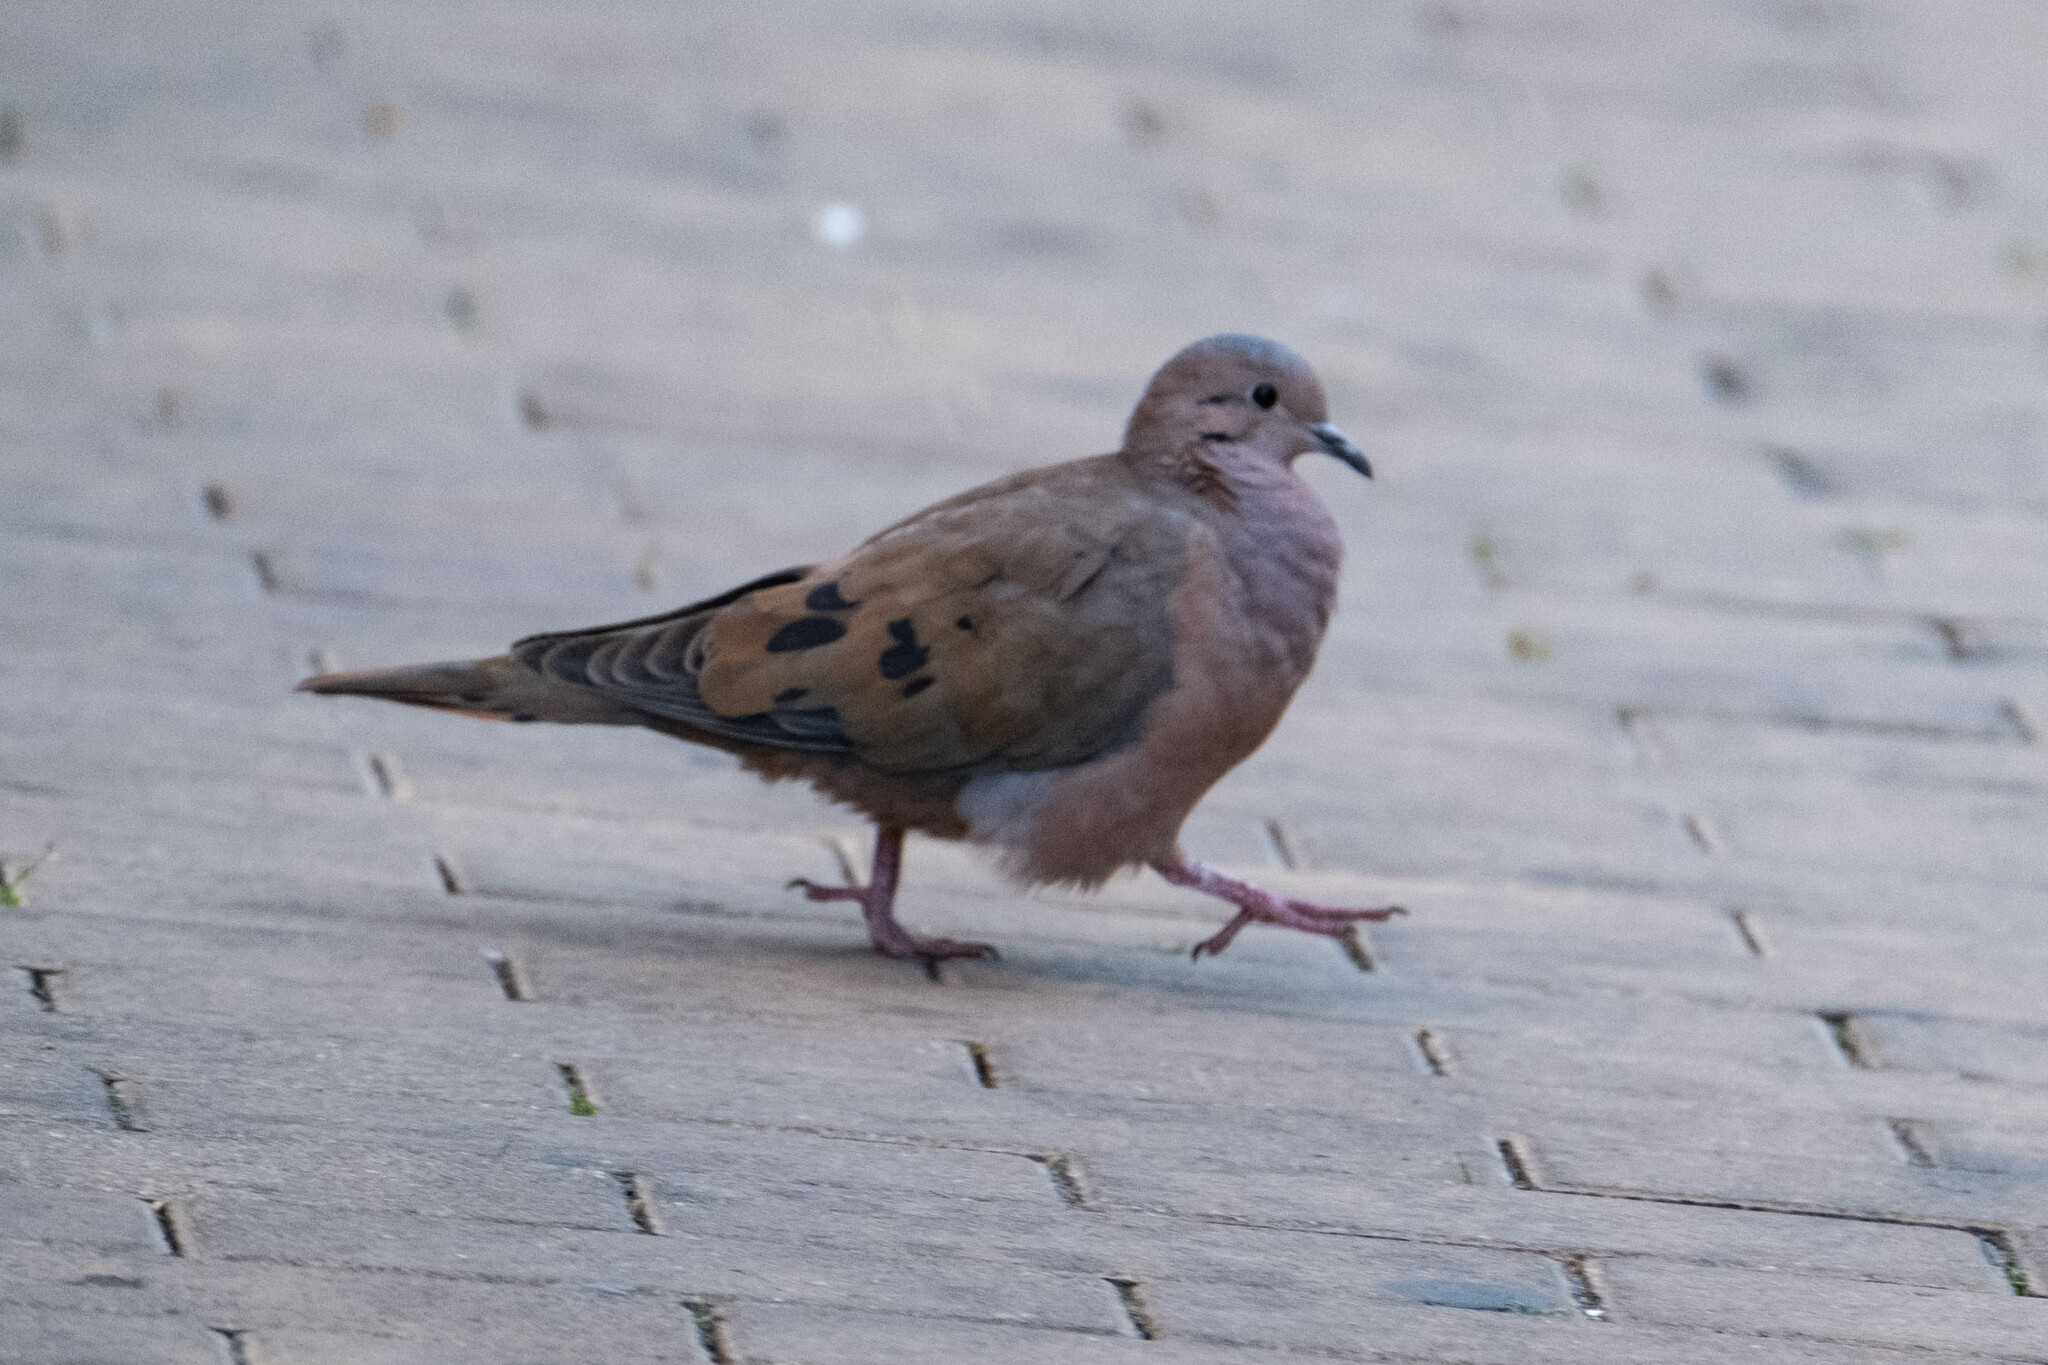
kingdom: Animalia
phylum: Chordata
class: Aves
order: Columbiformes
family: Columbidae
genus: Zenaida
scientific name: Zenaida auriculata
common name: Eared dove
